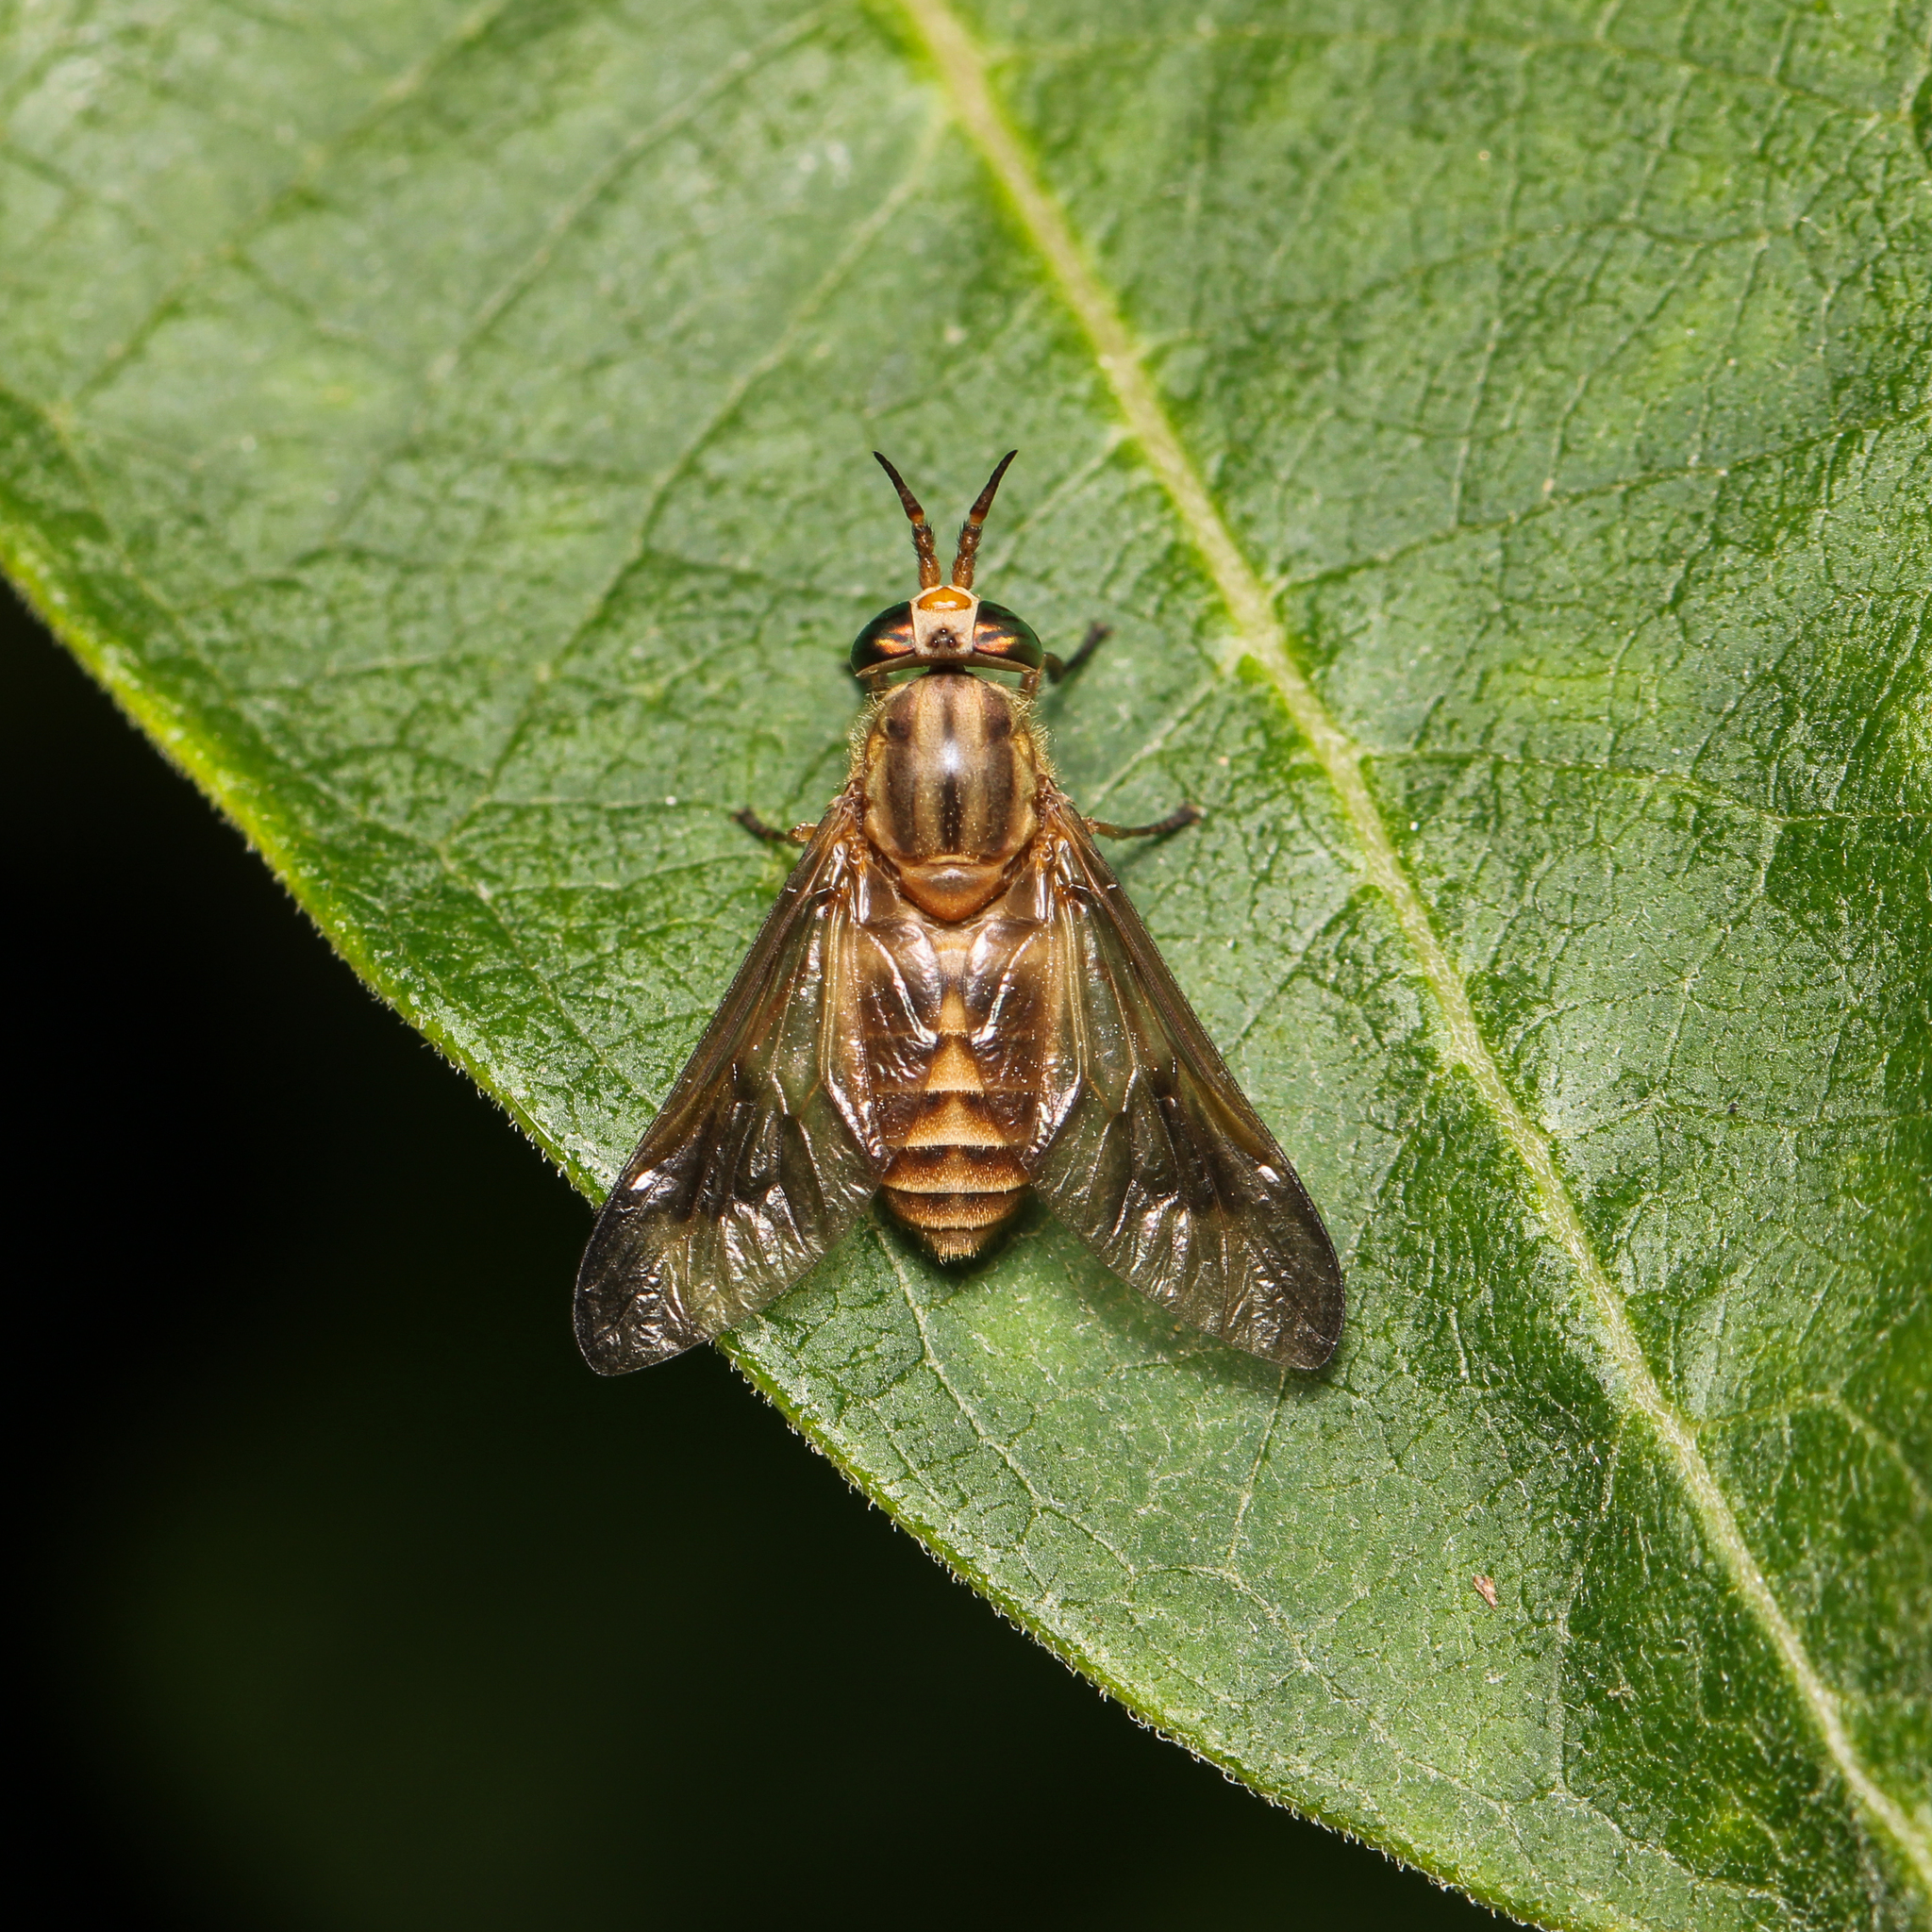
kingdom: Animalia
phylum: Arthropoda
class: Insecta
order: Diptera
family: Tabanidae
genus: Chrysops
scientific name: Chrysops flavidus
